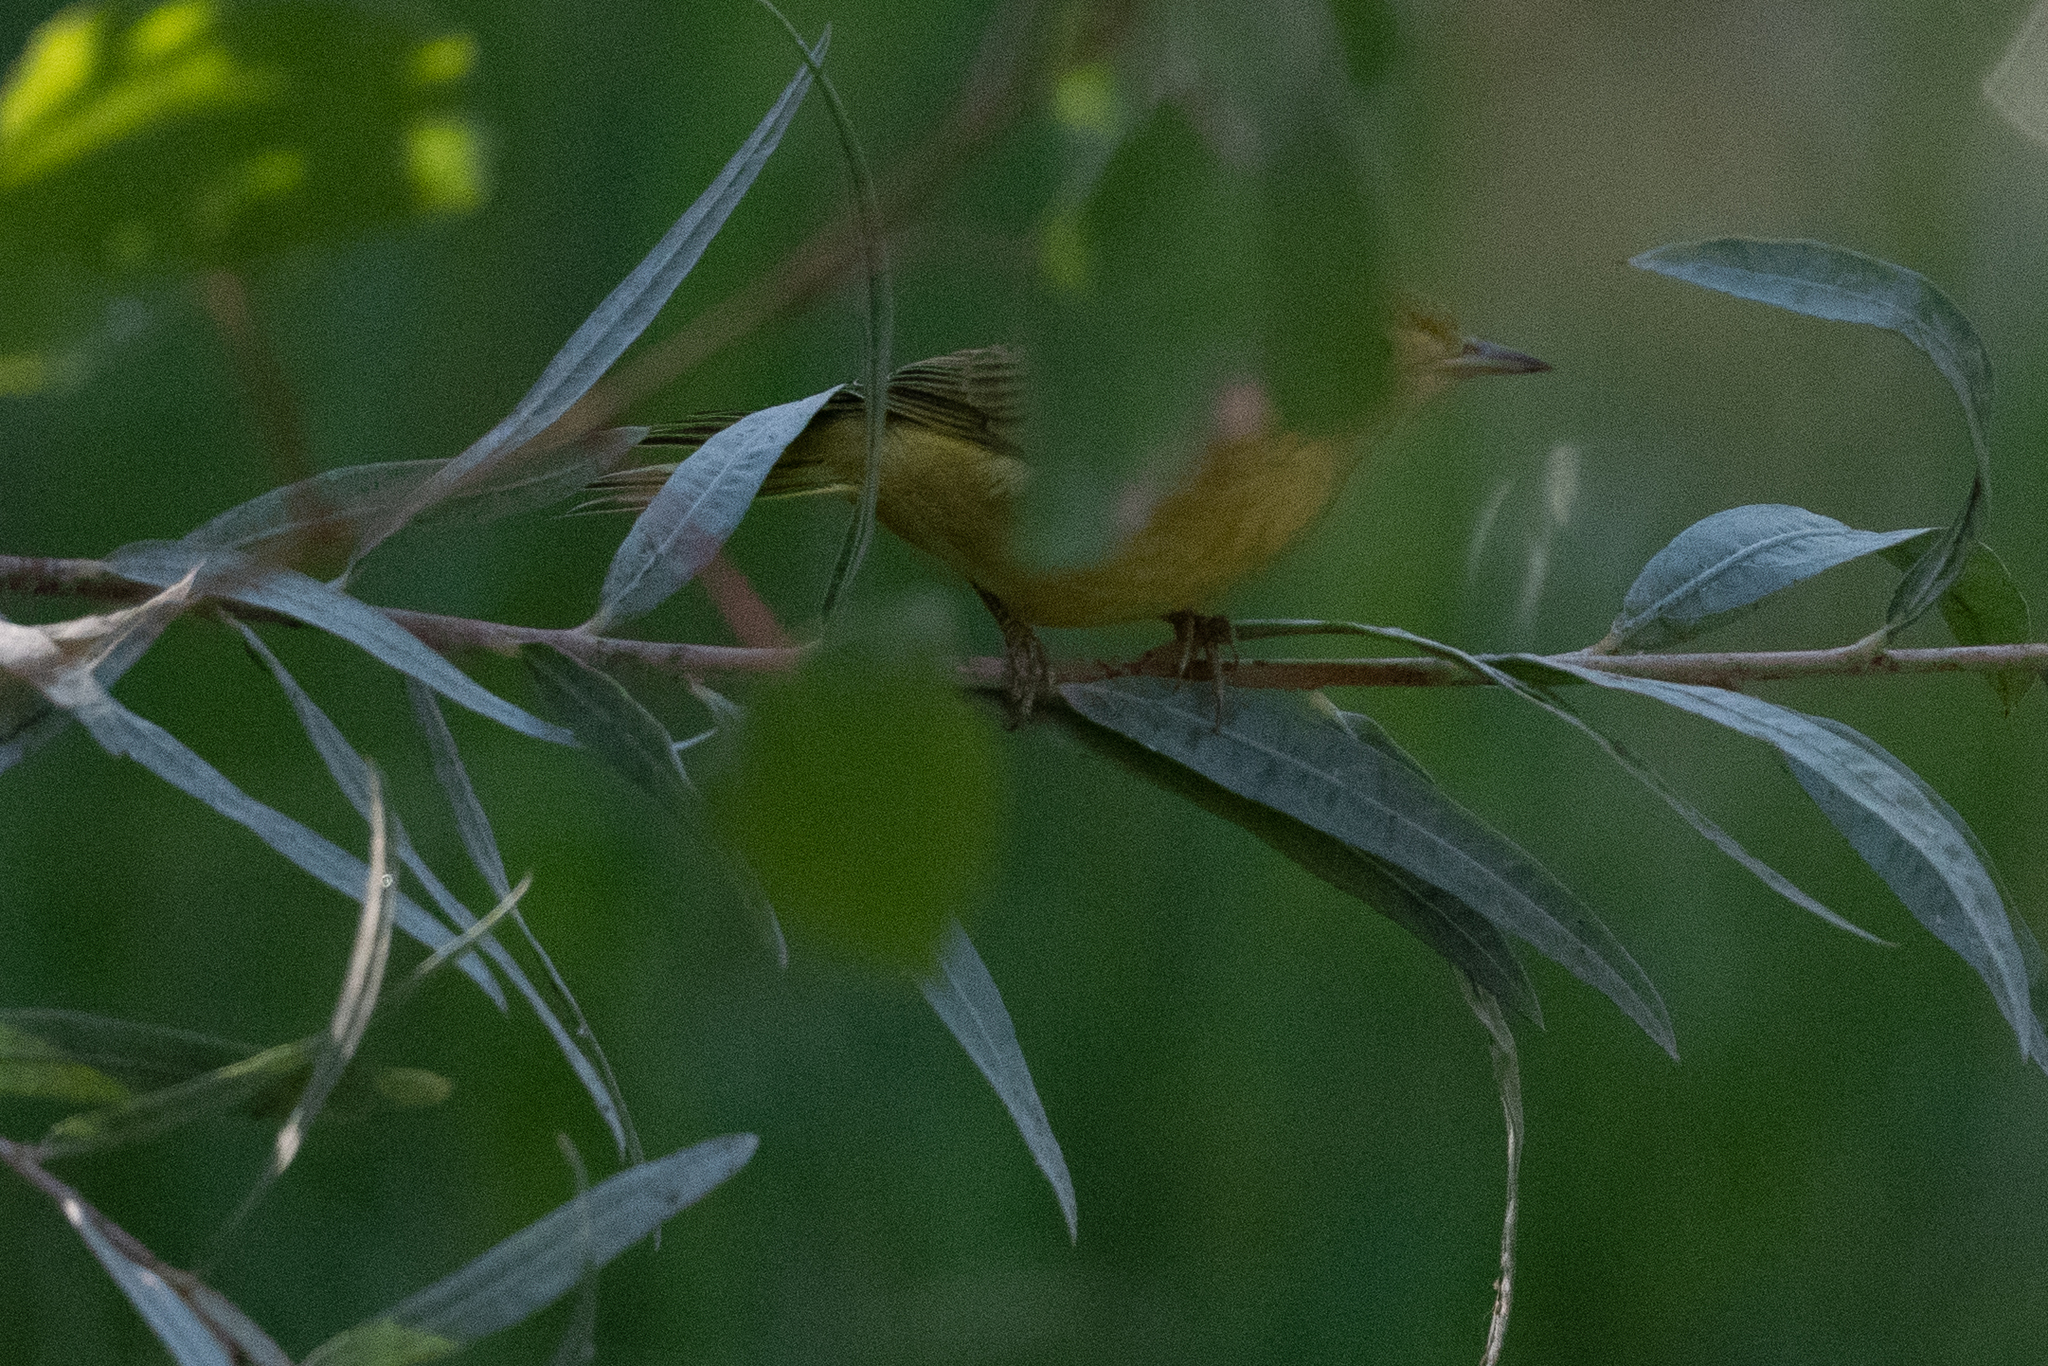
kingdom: Animalia
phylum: Chordata
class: Aves
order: Passeriformes
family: Parulidae
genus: Setophaga
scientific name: Setophaga petechia
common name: Yellow warbler
